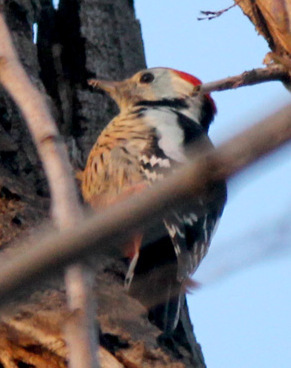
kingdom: Animalia
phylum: Chordata
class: Aves
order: Piciformes
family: Picidae
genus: Dendrocoptes
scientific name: Dendrocoptes medius
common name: Middle spotted woodpecker
